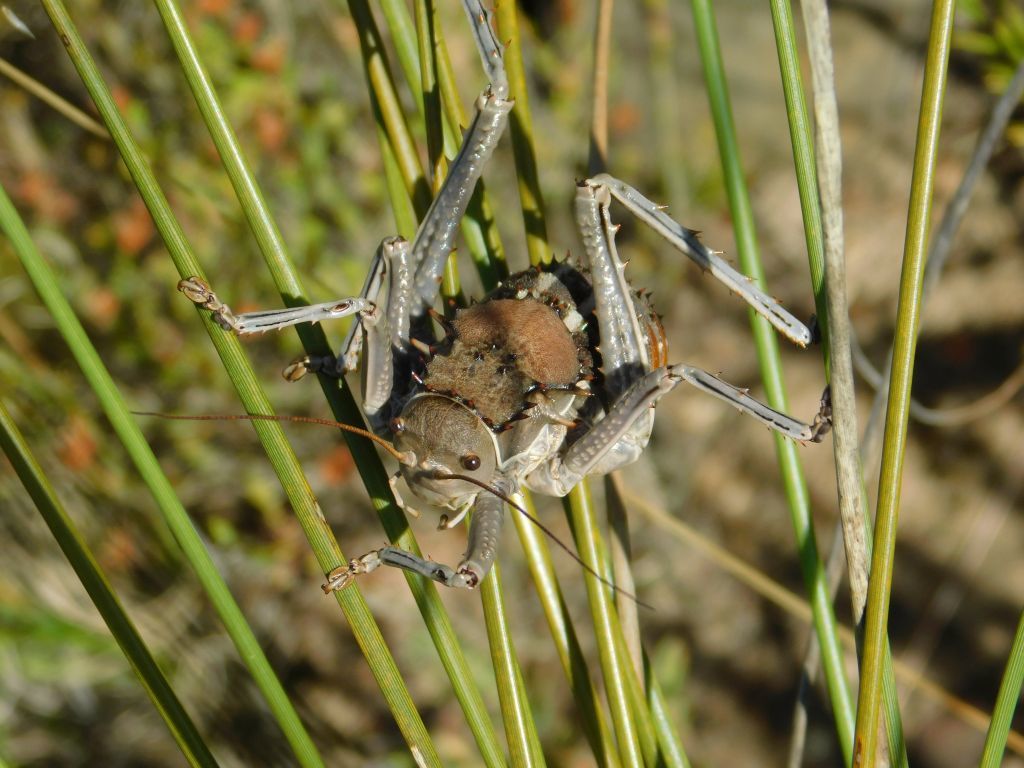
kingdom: Animalia
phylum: Arthropoda
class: Insecta
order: Orthoptera
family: Tettigoniidae
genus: Hetrodes
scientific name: Hetrodes pupus
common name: Koringkriek
